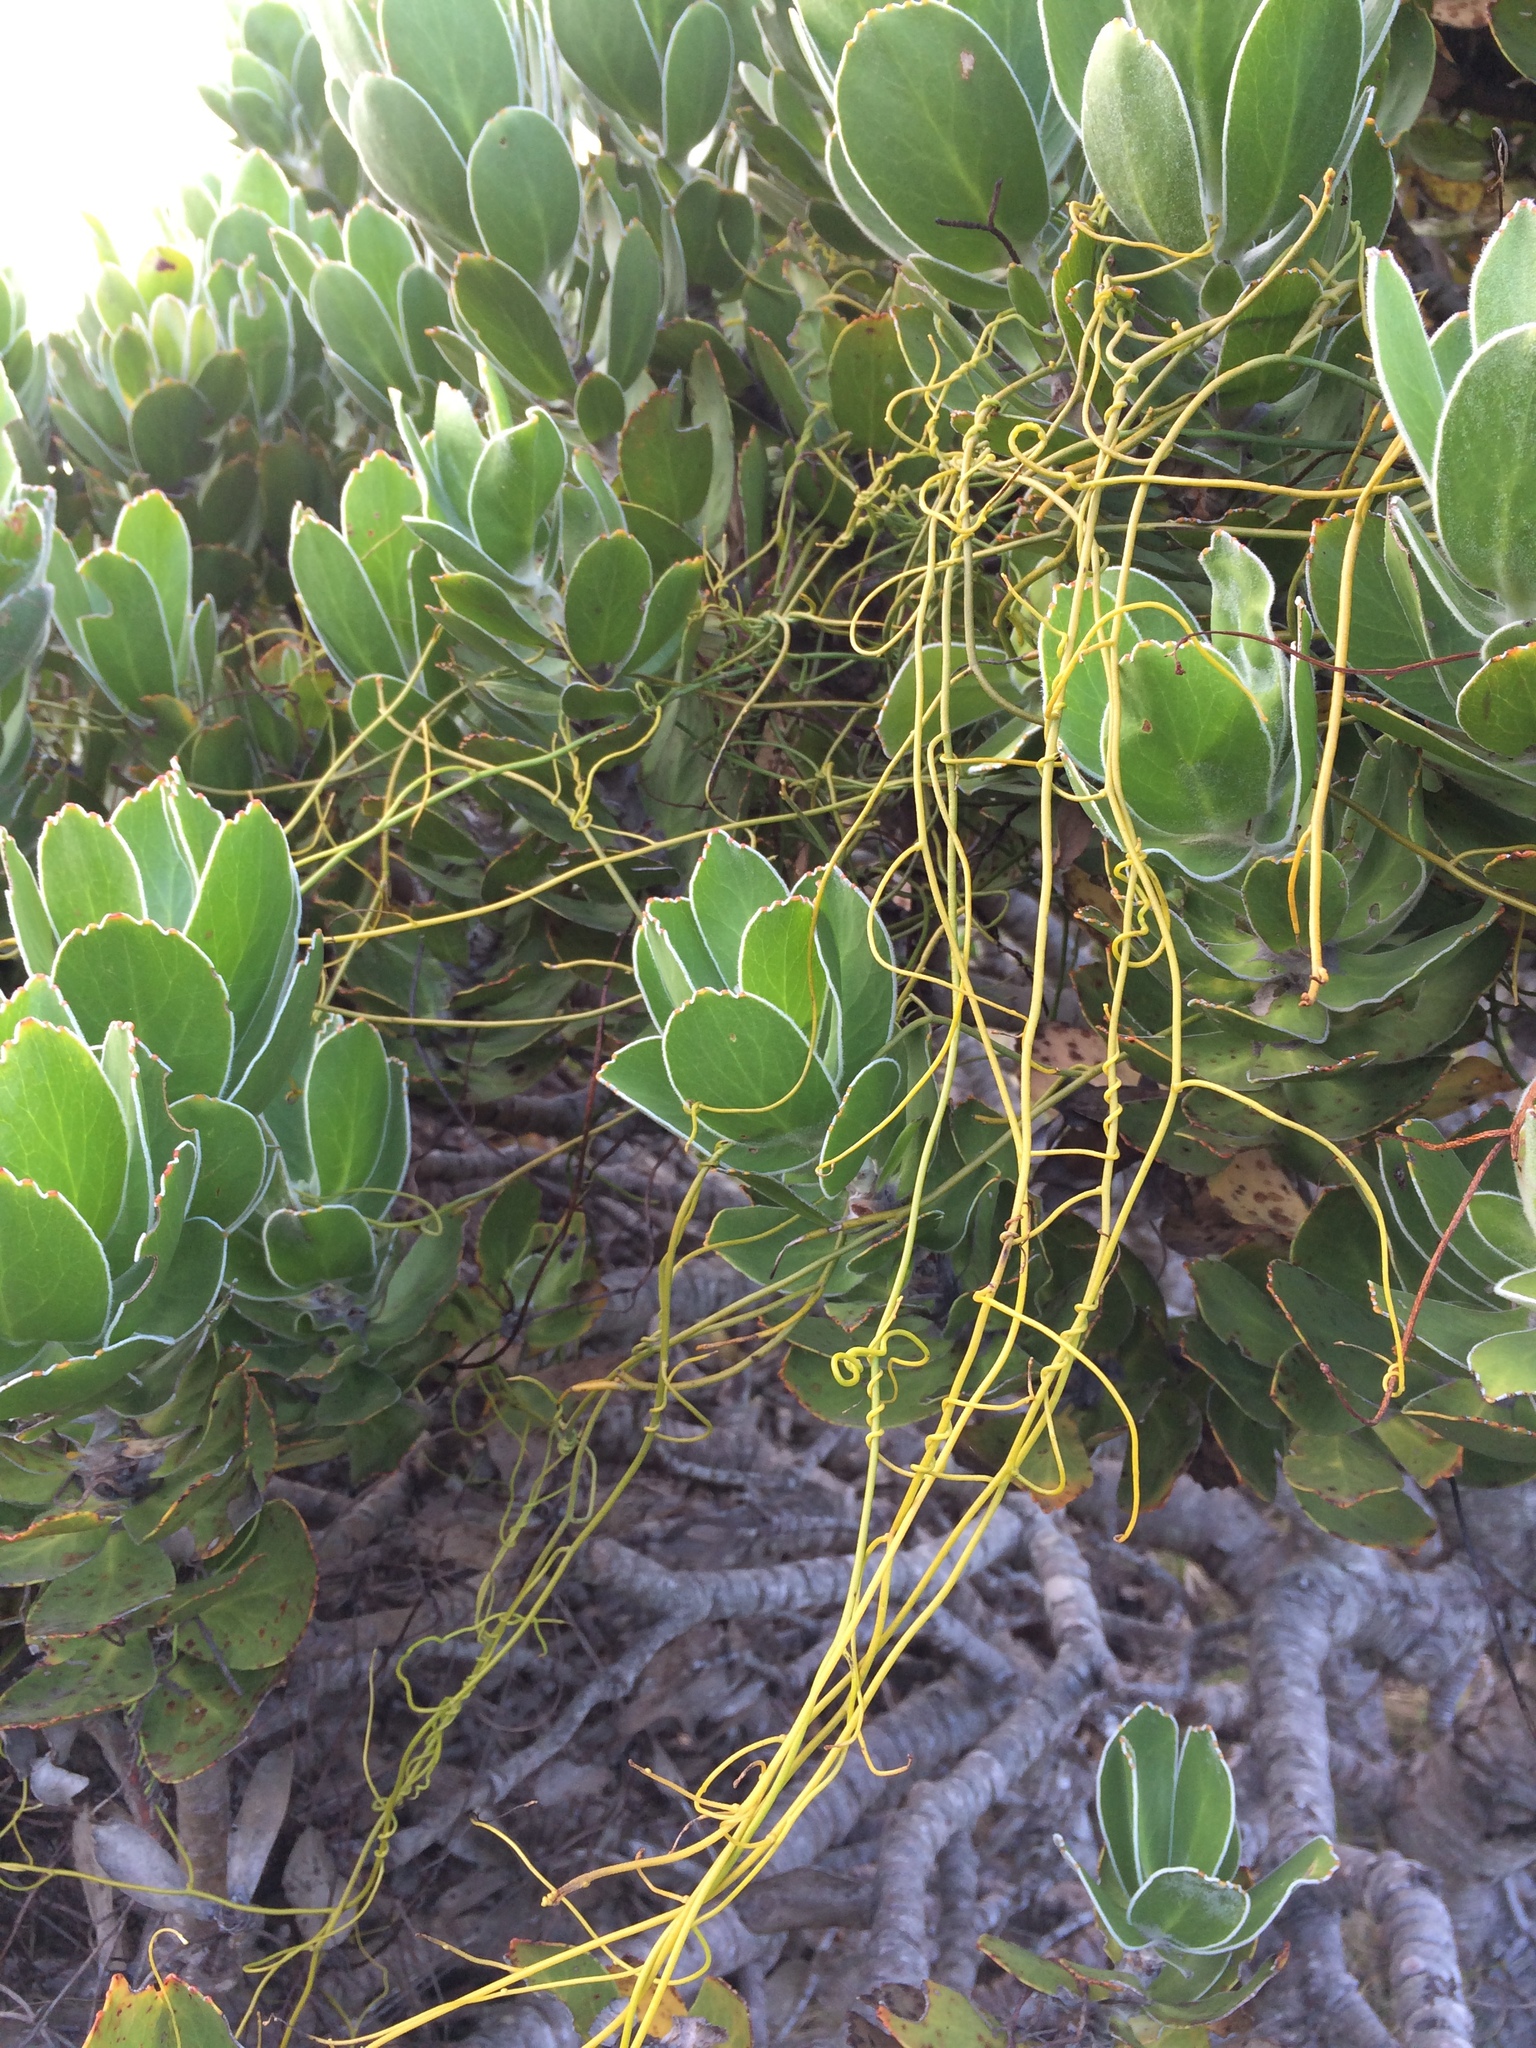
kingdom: Plantae
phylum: Tracheophyta
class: Magnoliopsida
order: Laurales
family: Lauraceae
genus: Cassytha
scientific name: Cassytha ciliolata
